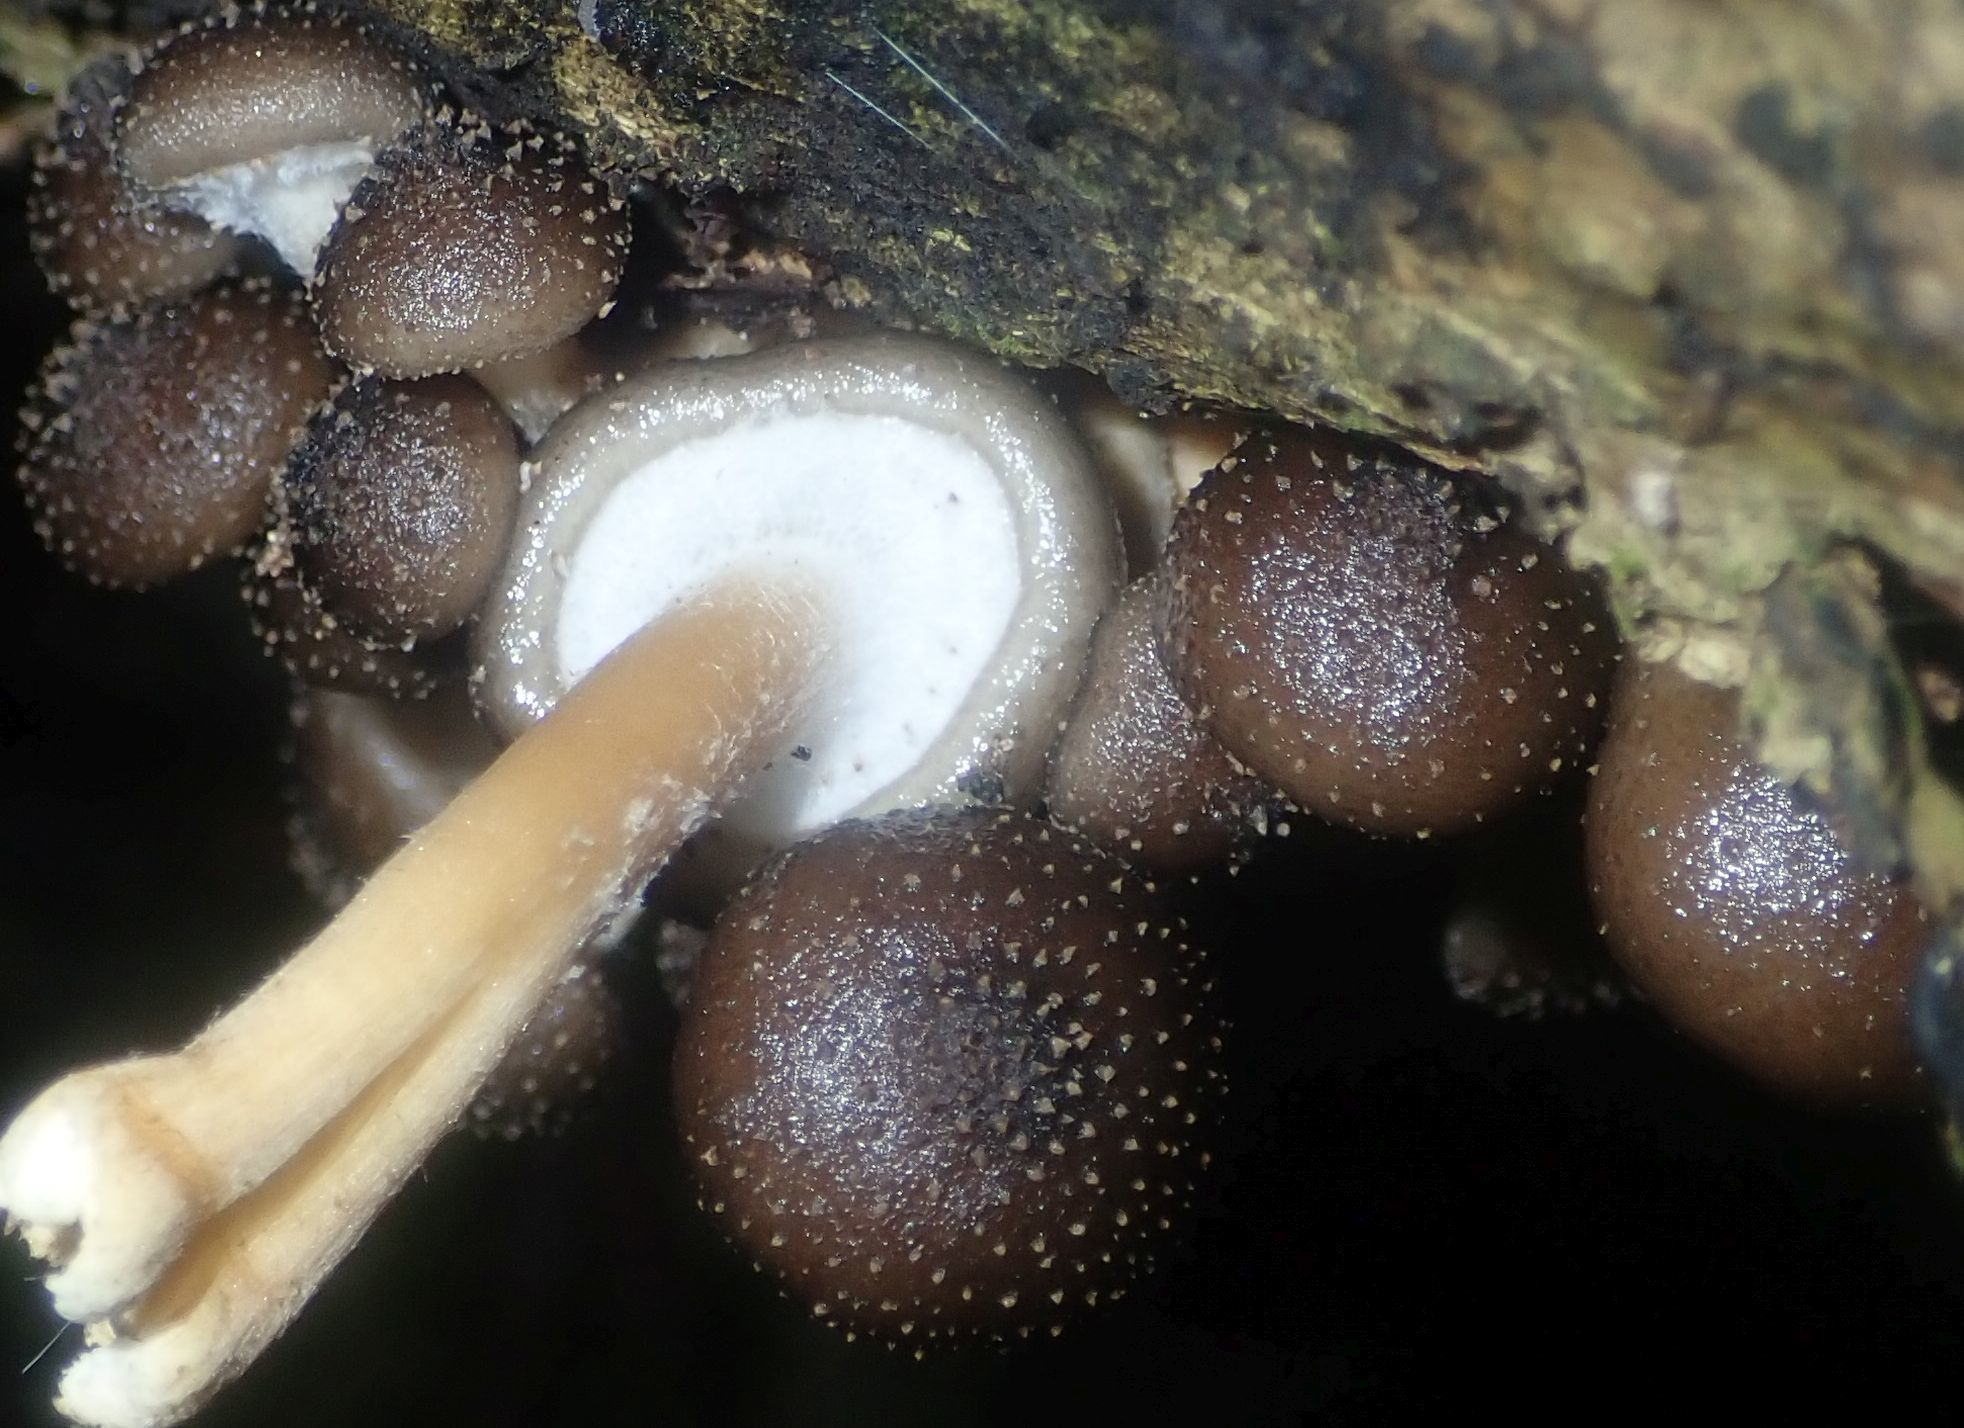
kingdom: Fungi
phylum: Basidiomycota
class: Agaricomycetes
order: Agaricales
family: Physalacriaceae
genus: Armillaria
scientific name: Armillaria novae-zelandiae
